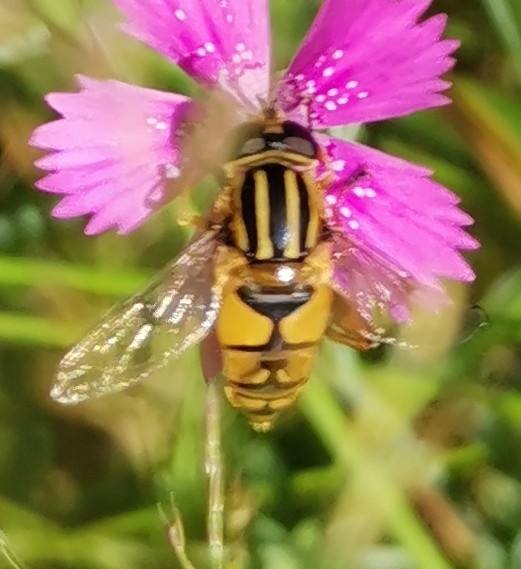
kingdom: Animalia
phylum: Arthropoda
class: Insecta
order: Diptera
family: Syrphidae
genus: Helophilus
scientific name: Helophilus pendulus
